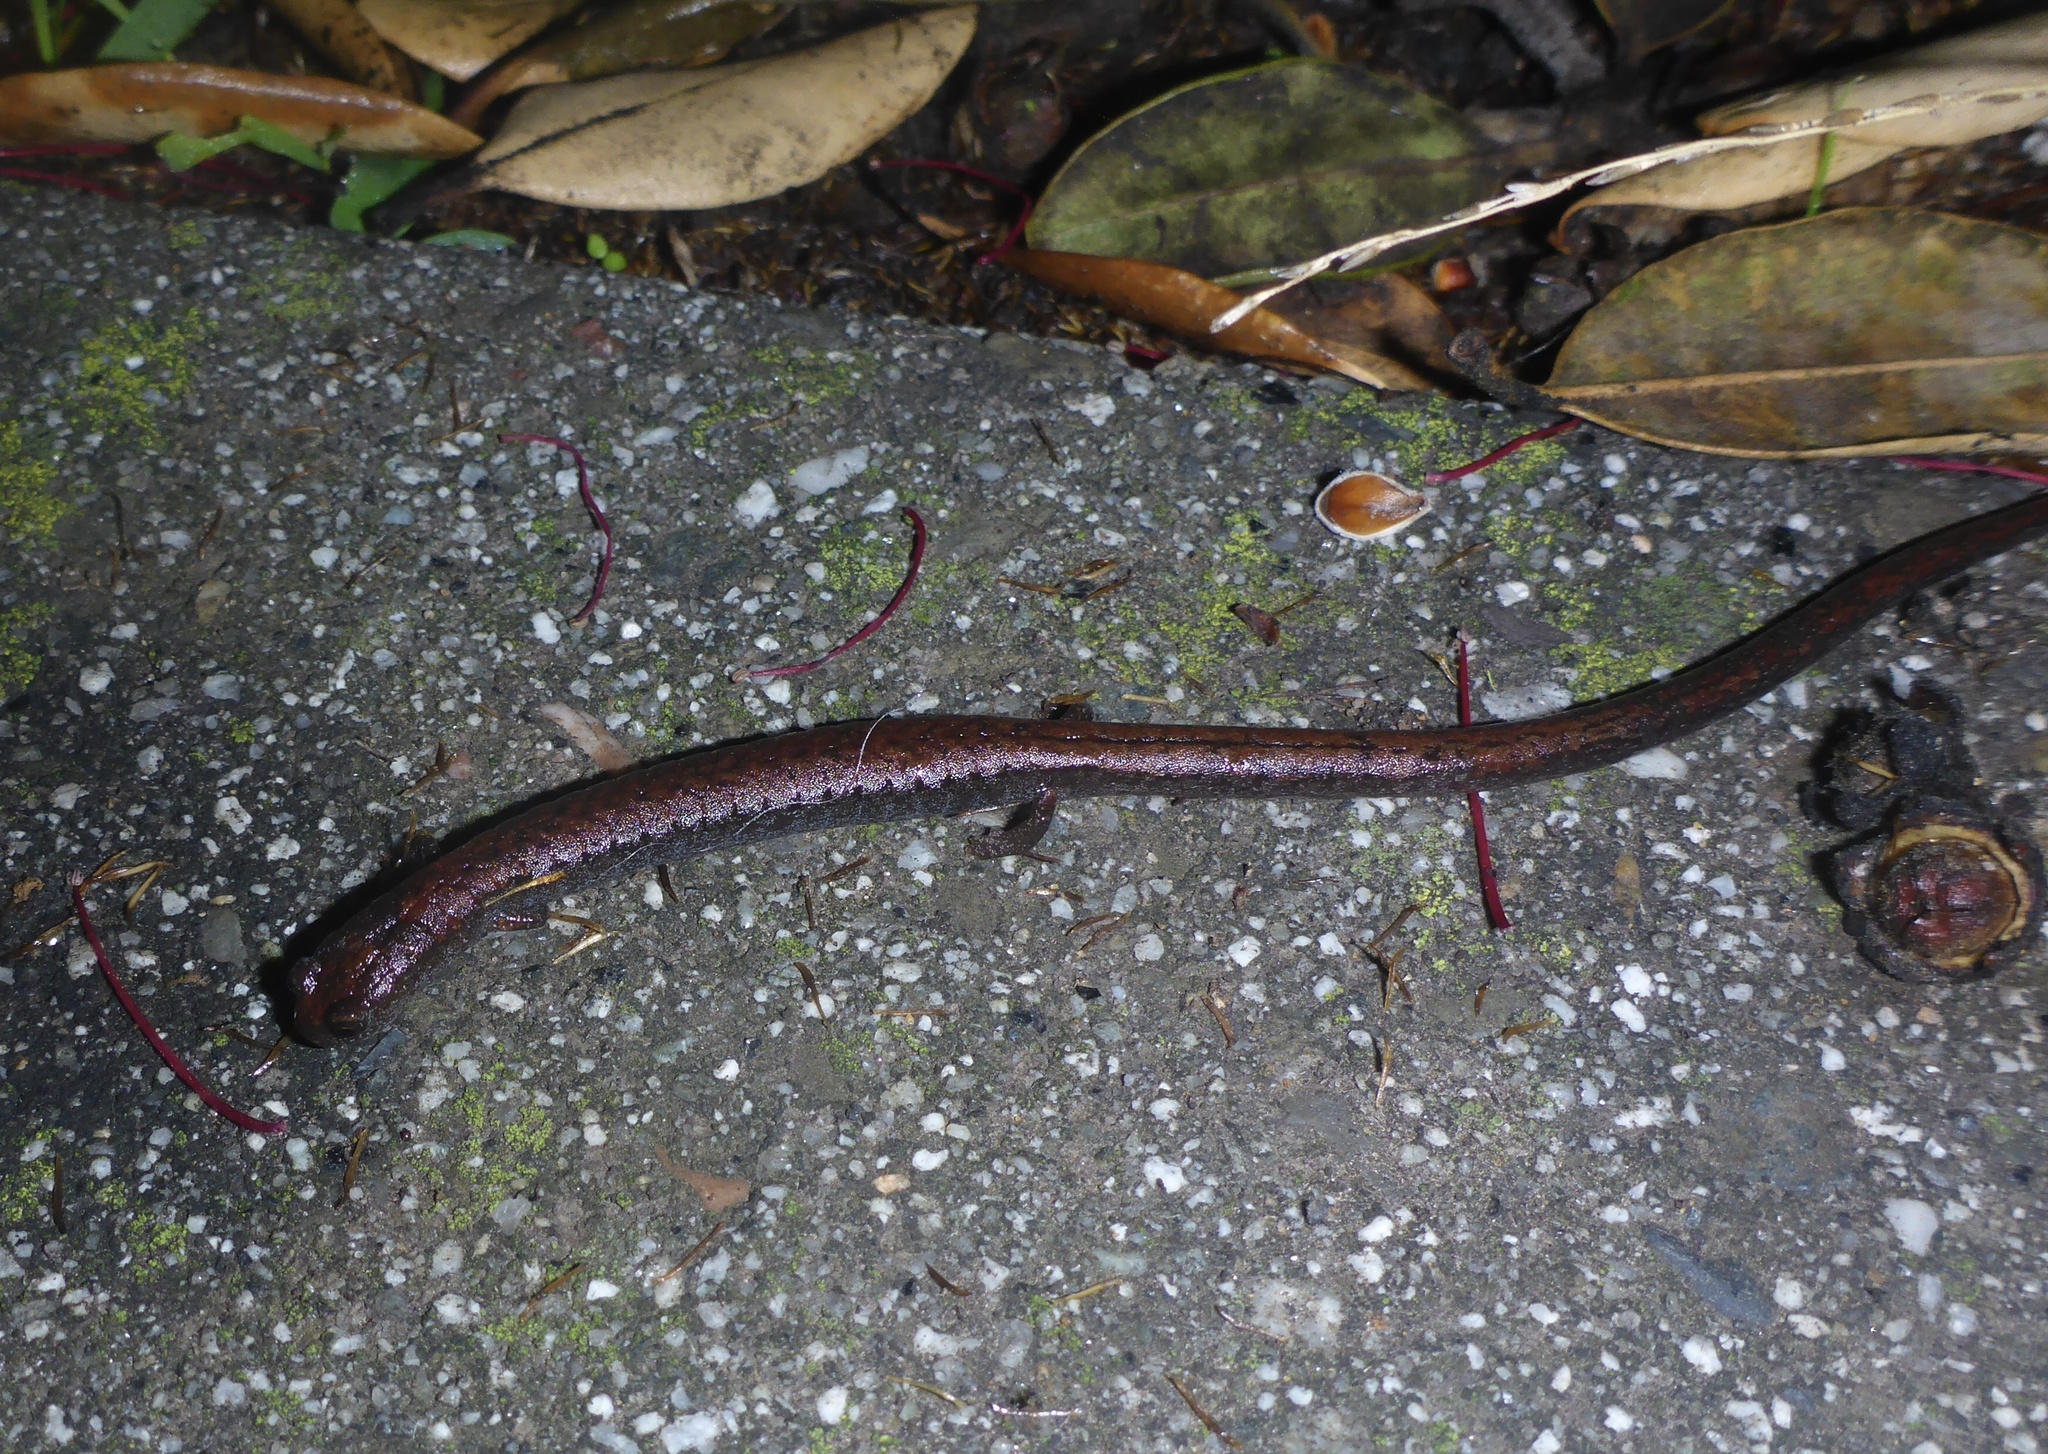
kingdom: Animalia
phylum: Chordata
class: Amphibia
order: Caudata
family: Plethodontidae
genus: Batrachoseps
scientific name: Batrachoseps attenuatus
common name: California slender salamander
